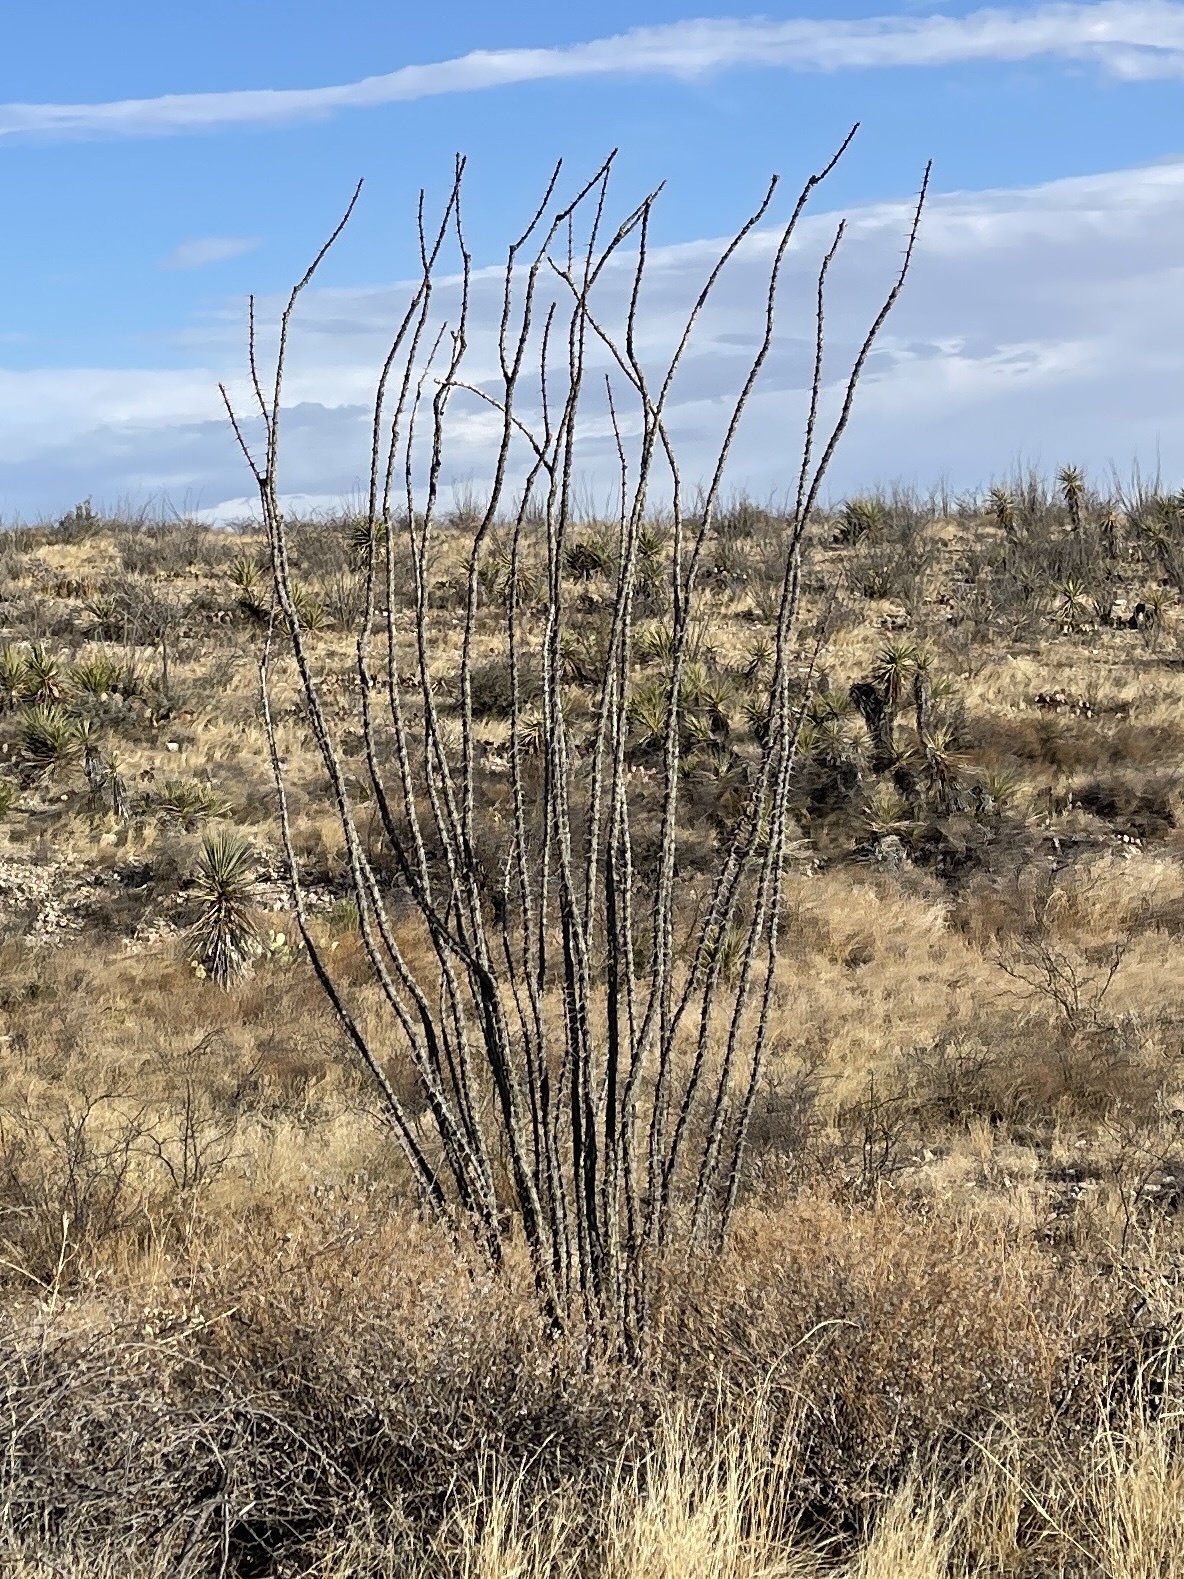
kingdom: Plantae
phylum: Tracheophyta
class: Magnoliopsida
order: Ericales
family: Fouquieriaceae
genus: Fouquieria
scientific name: Fouquieria splendens
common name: Vine-cactus
